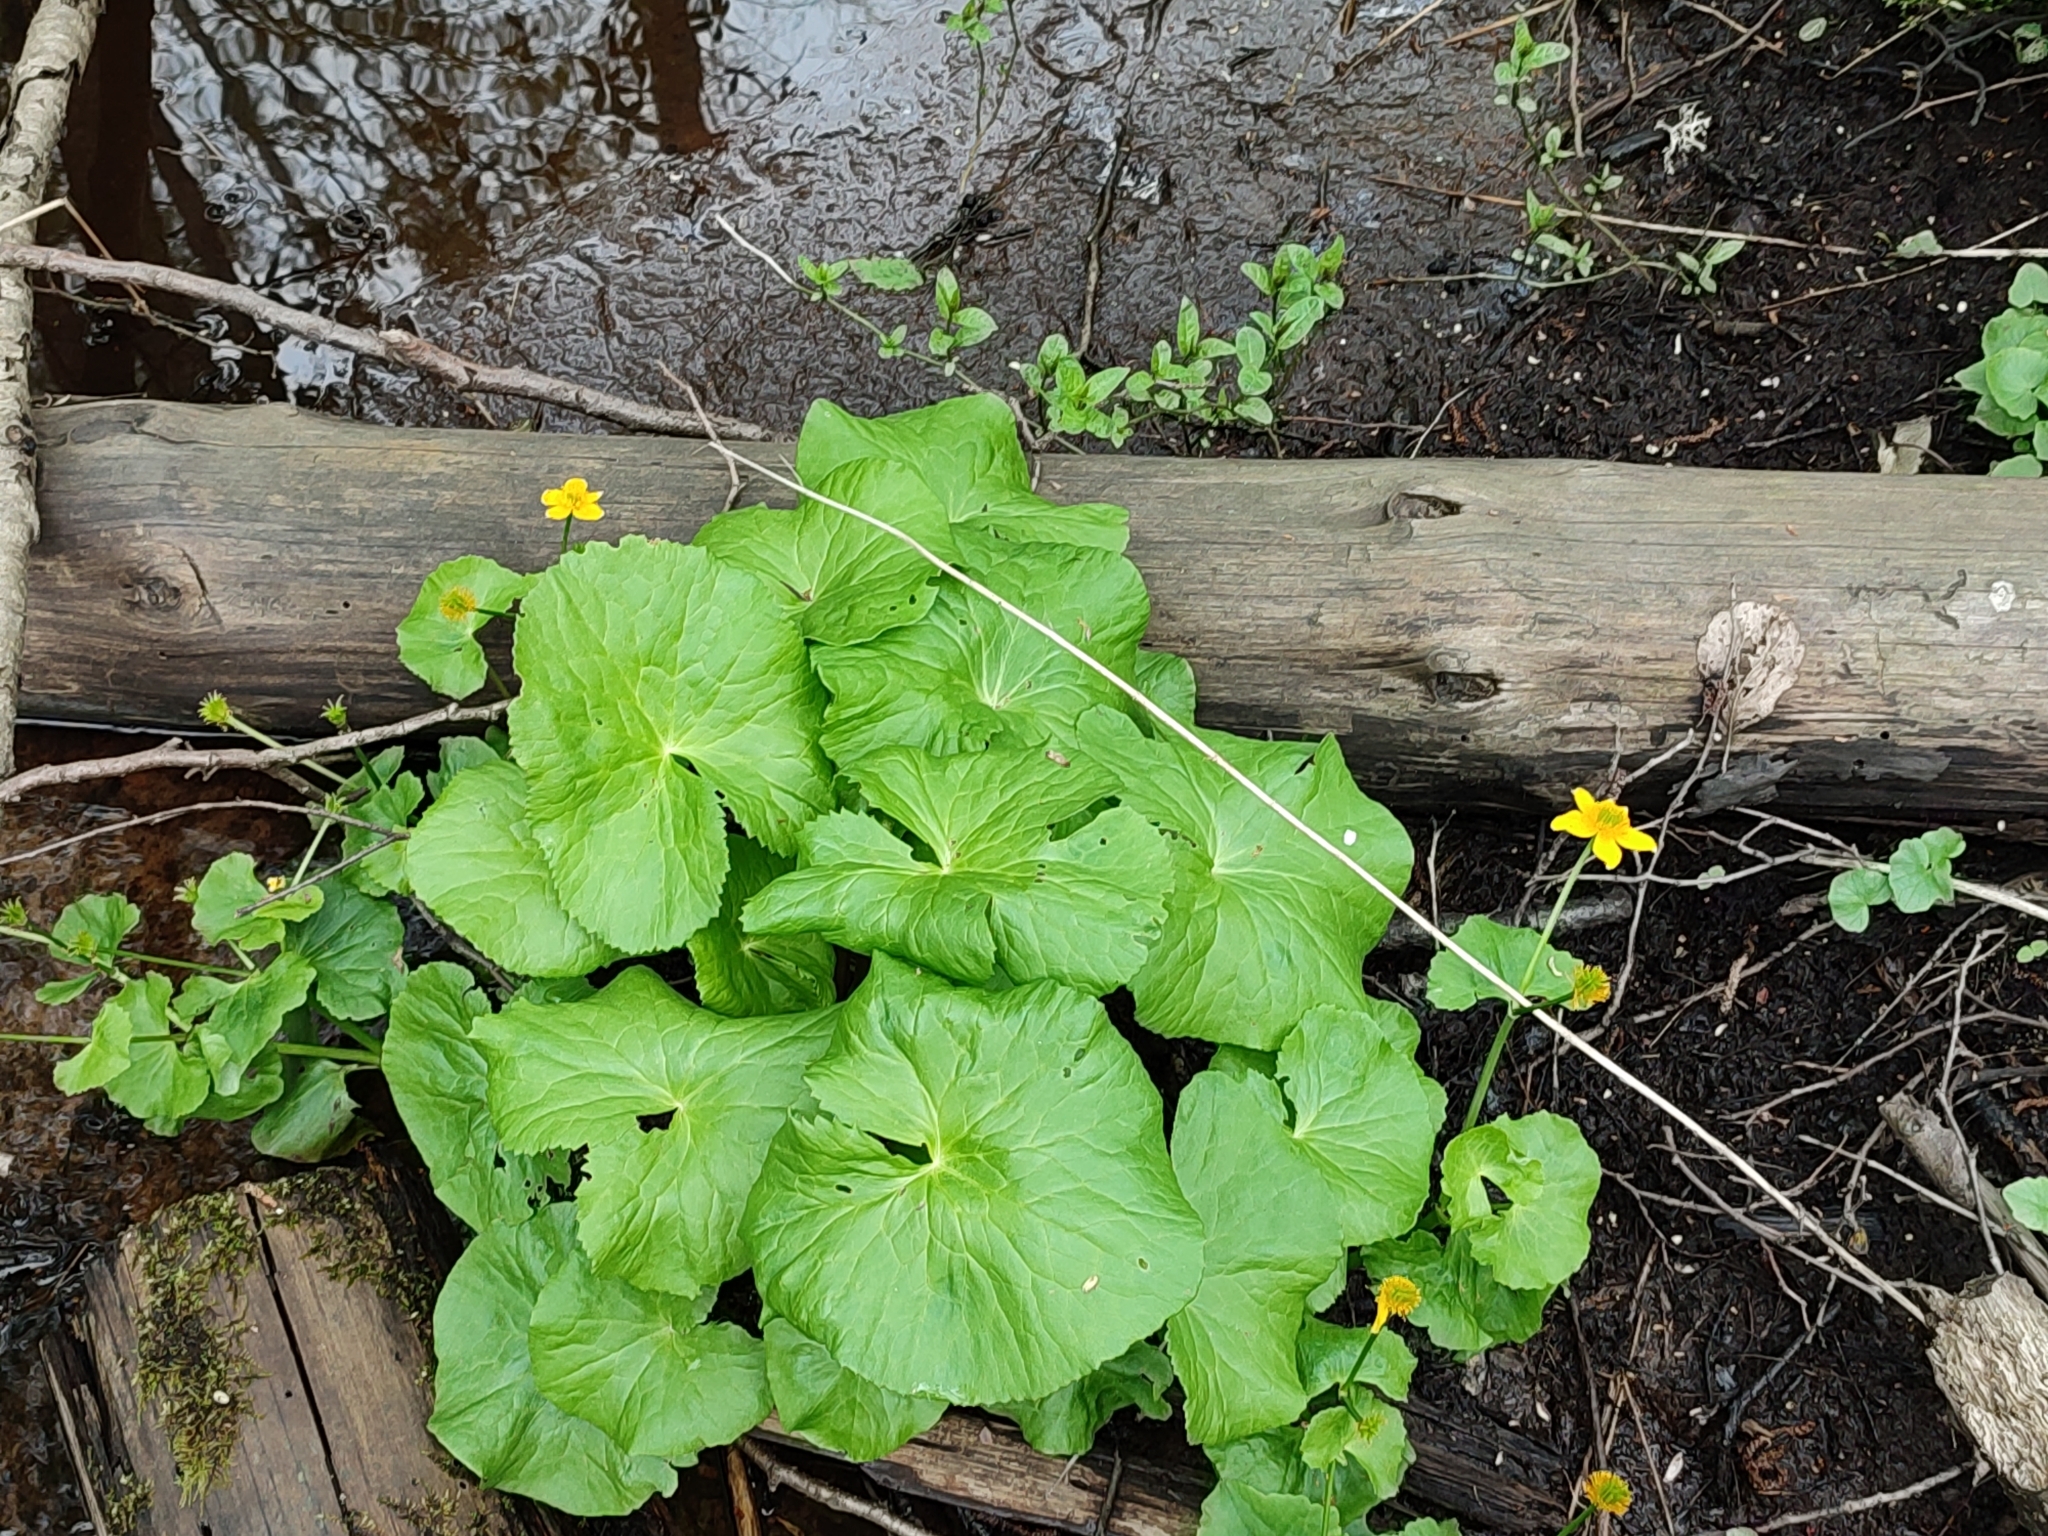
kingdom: Plantae
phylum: Tracheophyta
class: Magnoliopsida
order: Ranunculales
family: Ranunculaceae
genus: Caltha
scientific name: Caltha palustris
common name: Marsh marigold
